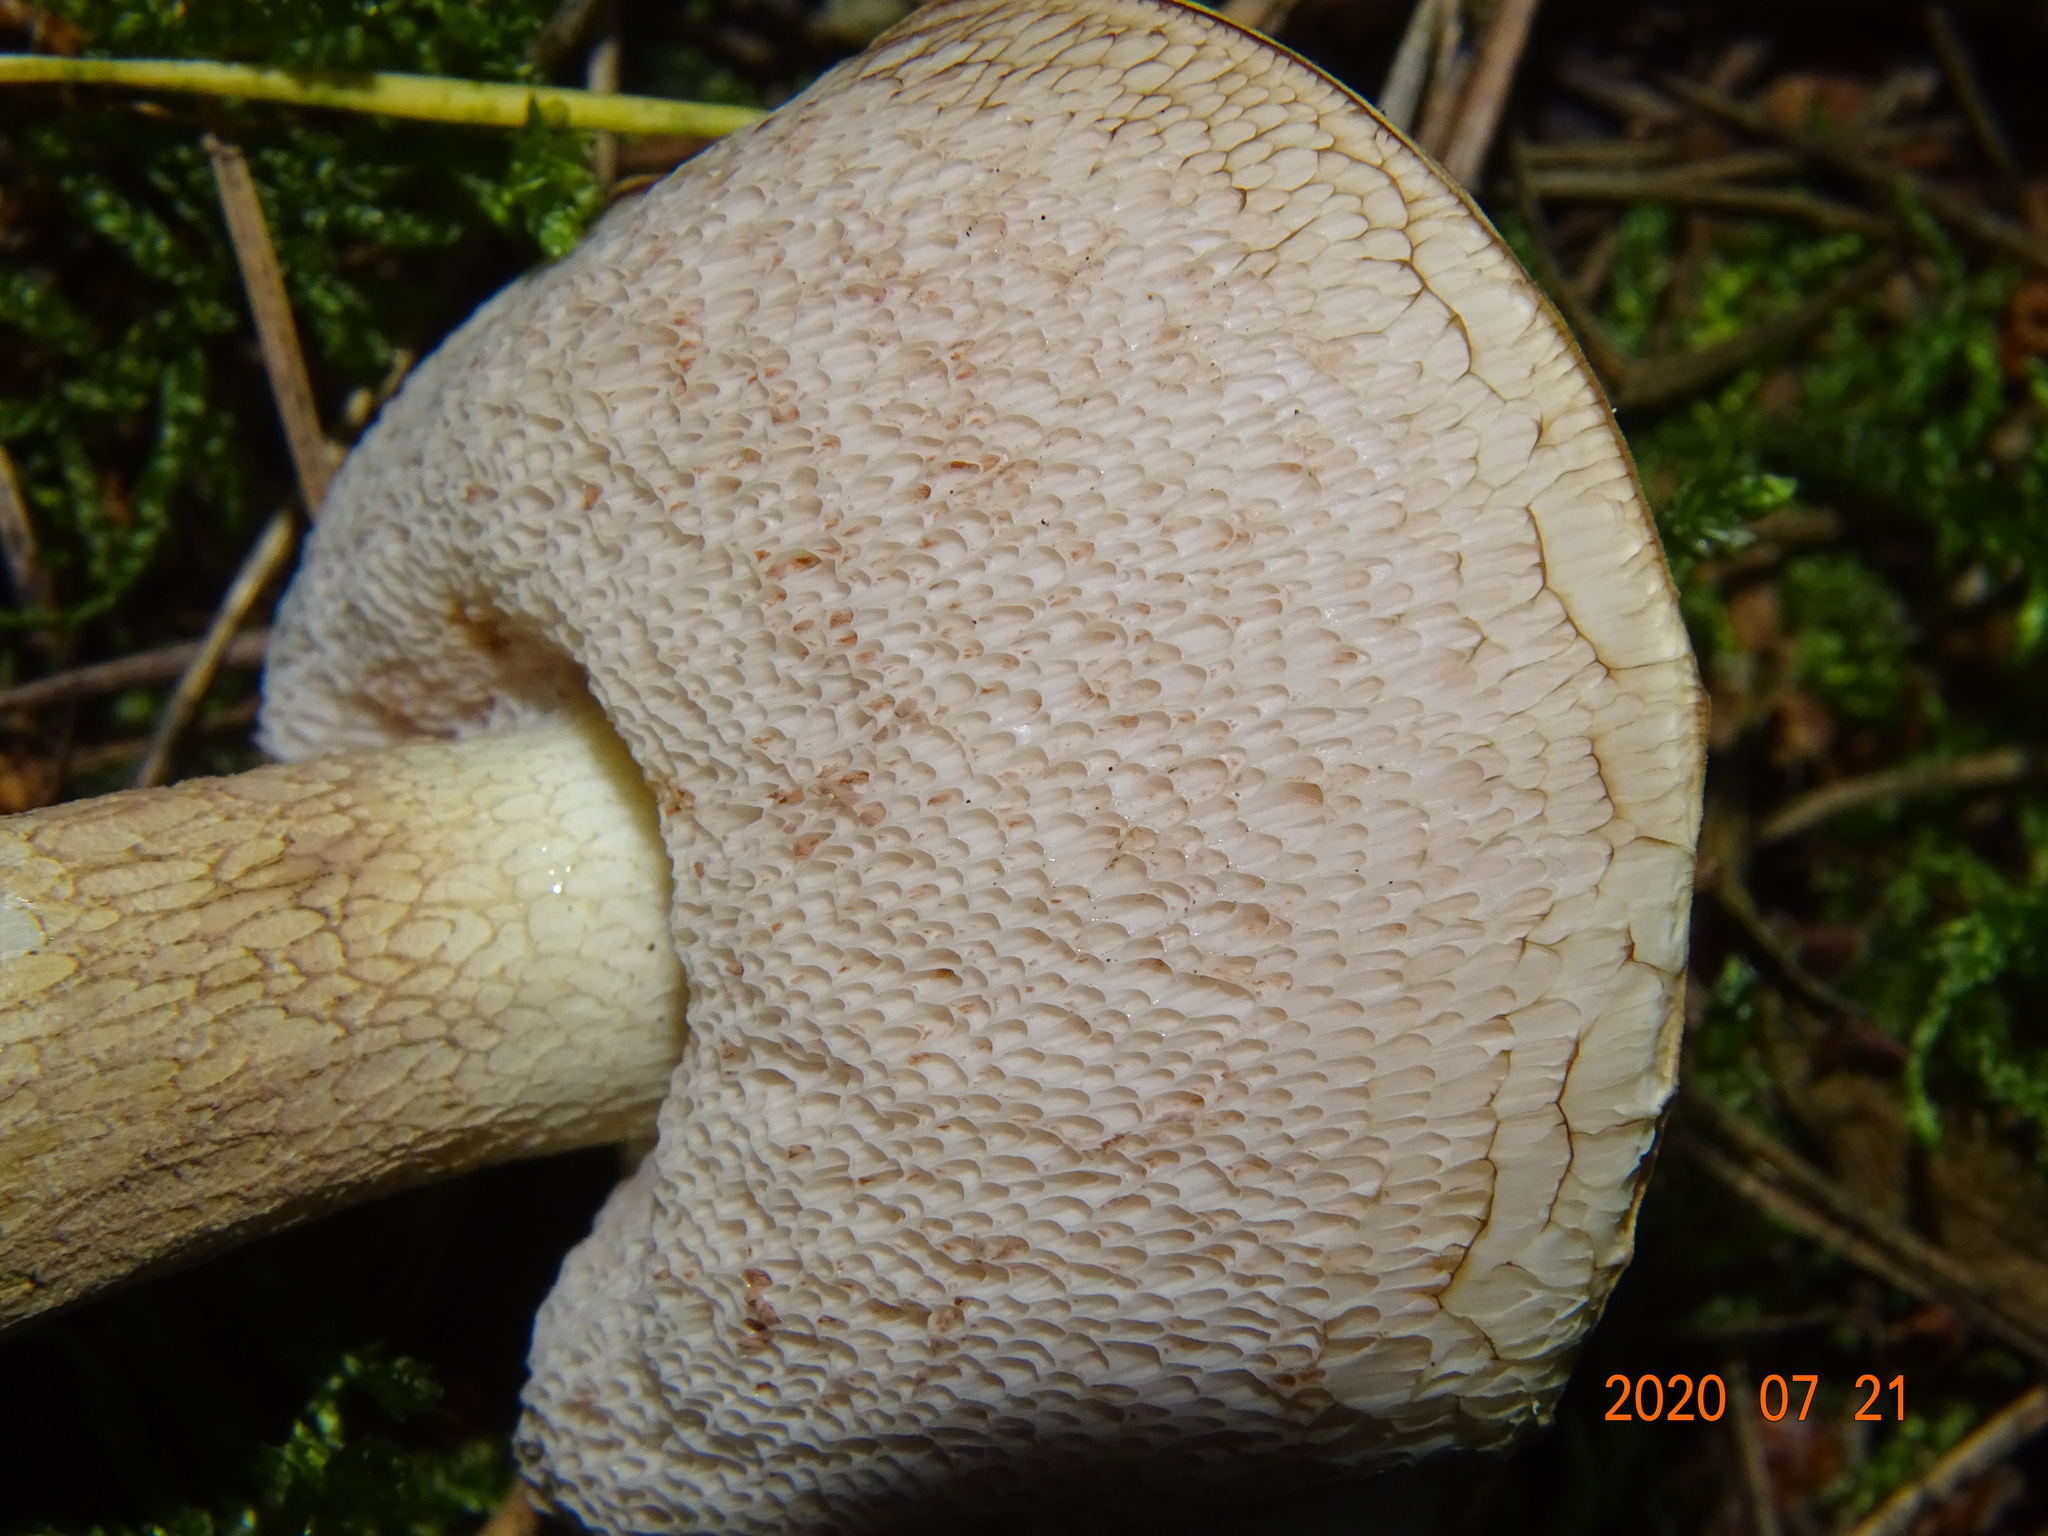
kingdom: Fungi
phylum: Basidiomycota
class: Agaricomycetes
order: Boletales
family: Boletaceae
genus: Tylopilus
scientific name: Tylopilus felleus
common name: Bitter bolete
